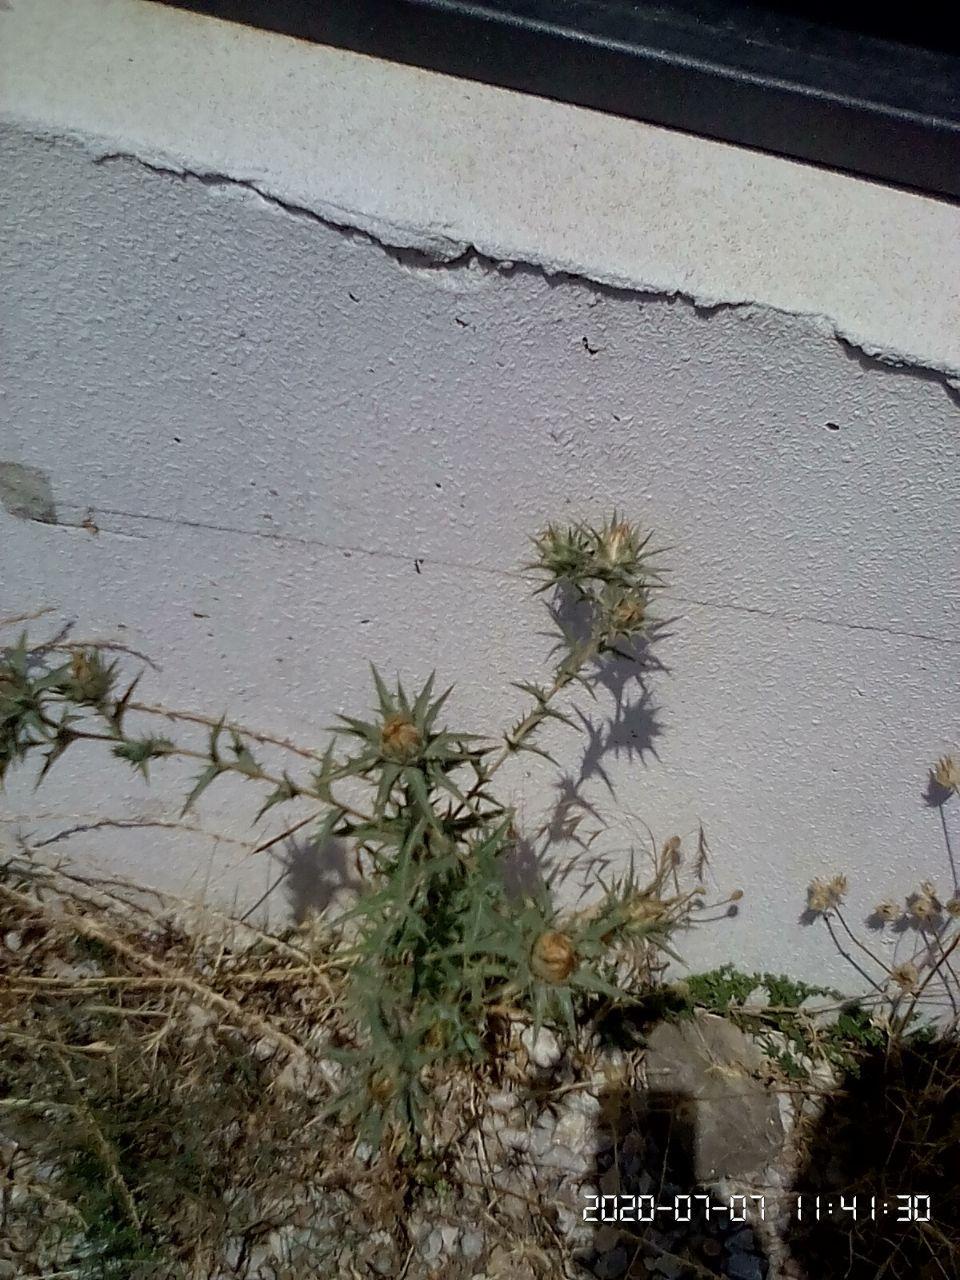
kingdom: Plantae
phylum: Tracheophyta
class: Magnoliopsida
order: Asterales
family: Asteraceae
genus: Carthamus
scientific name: Carthamus lanatus
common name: Downy safflower
